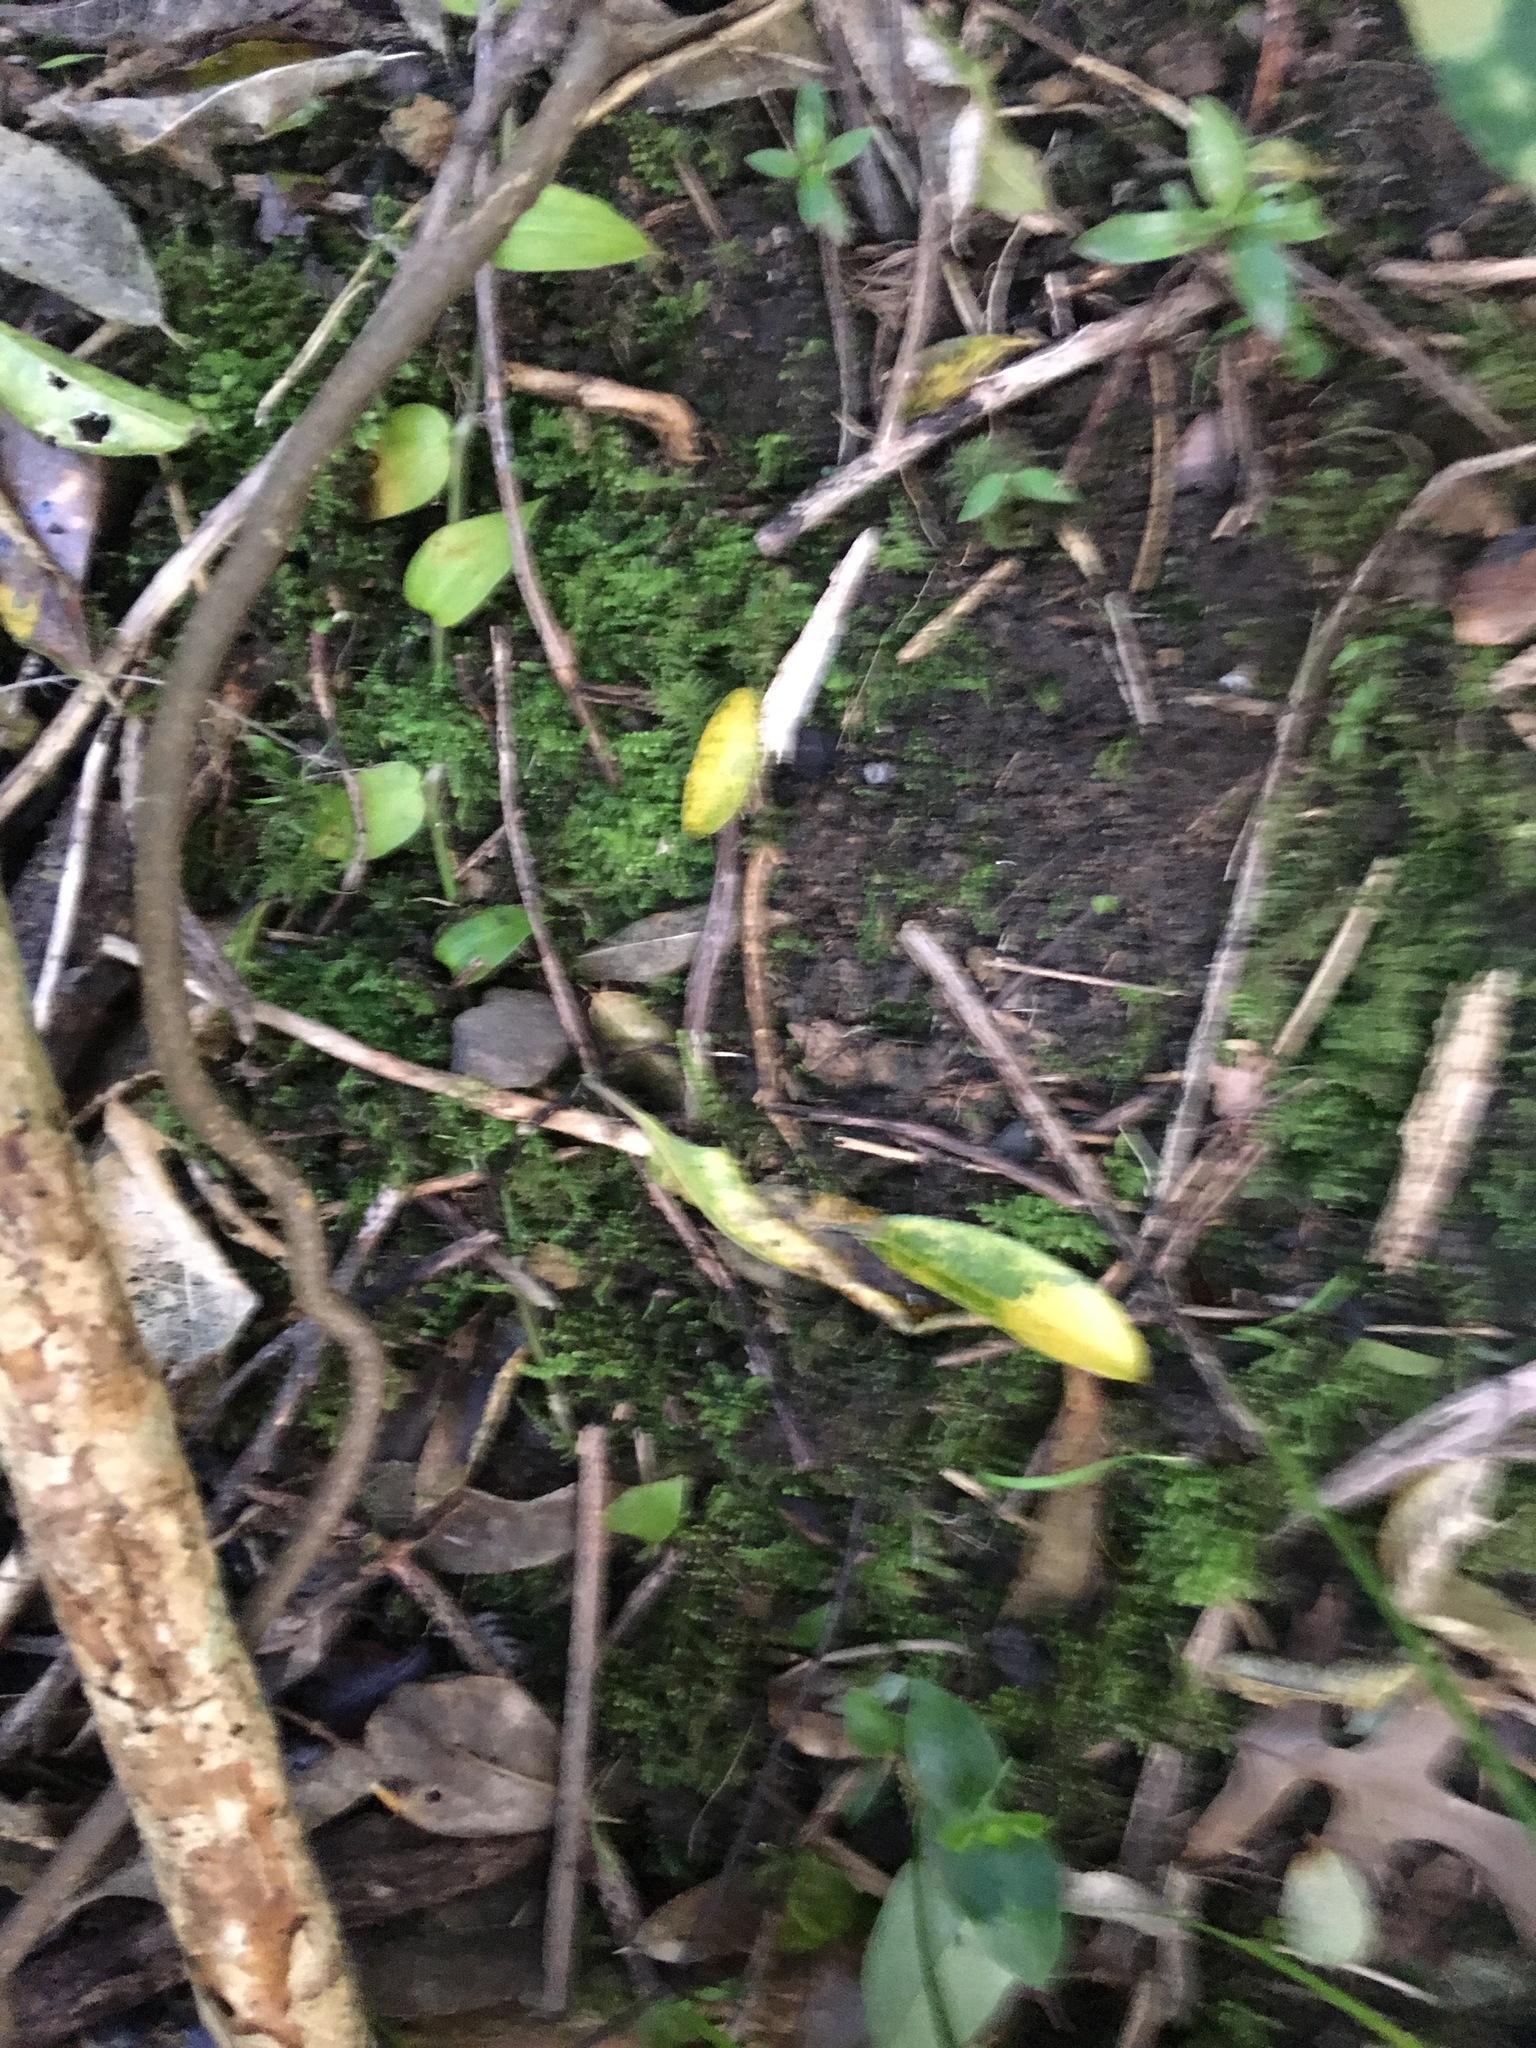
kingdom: Plantae
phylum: Tracheophyta
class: Liliopsida
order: Commelinales
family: Commelinaceae
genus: Tradescantia
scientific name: Tradescantia fluminensis
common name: Wandering-jew
